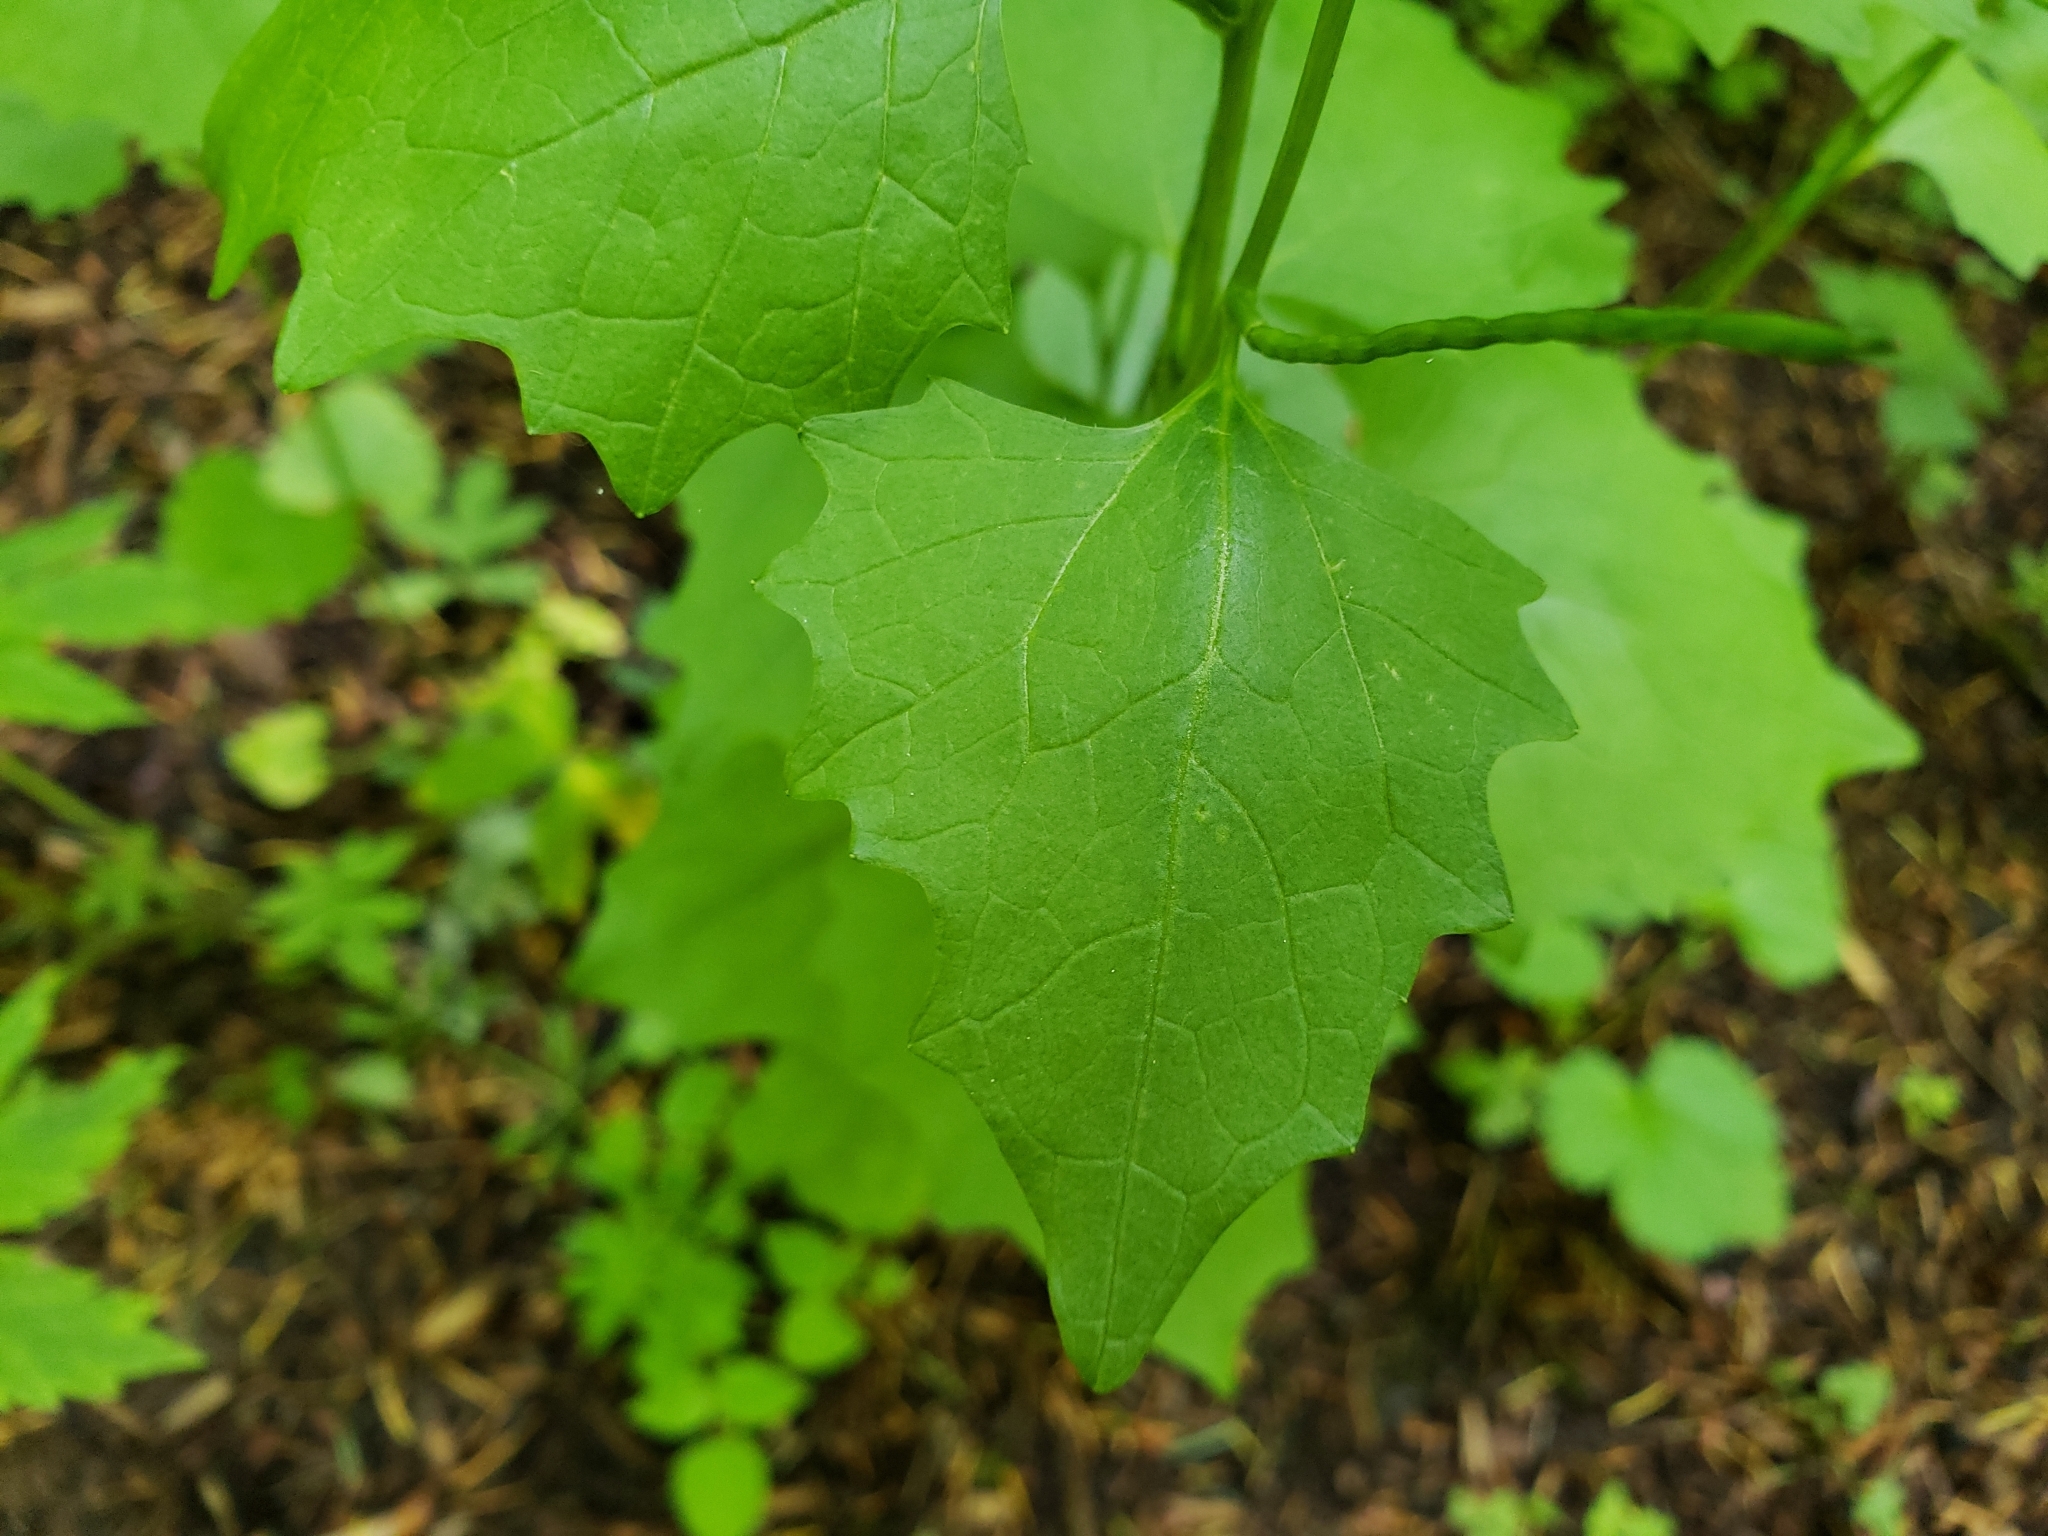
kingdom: Plantae
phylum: Tracheophyta
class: Magnoliopsida
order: Brassicales
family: Brassicaceae
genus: Alliaria
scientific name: Alliaria petiolata
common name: Garlic mustard
